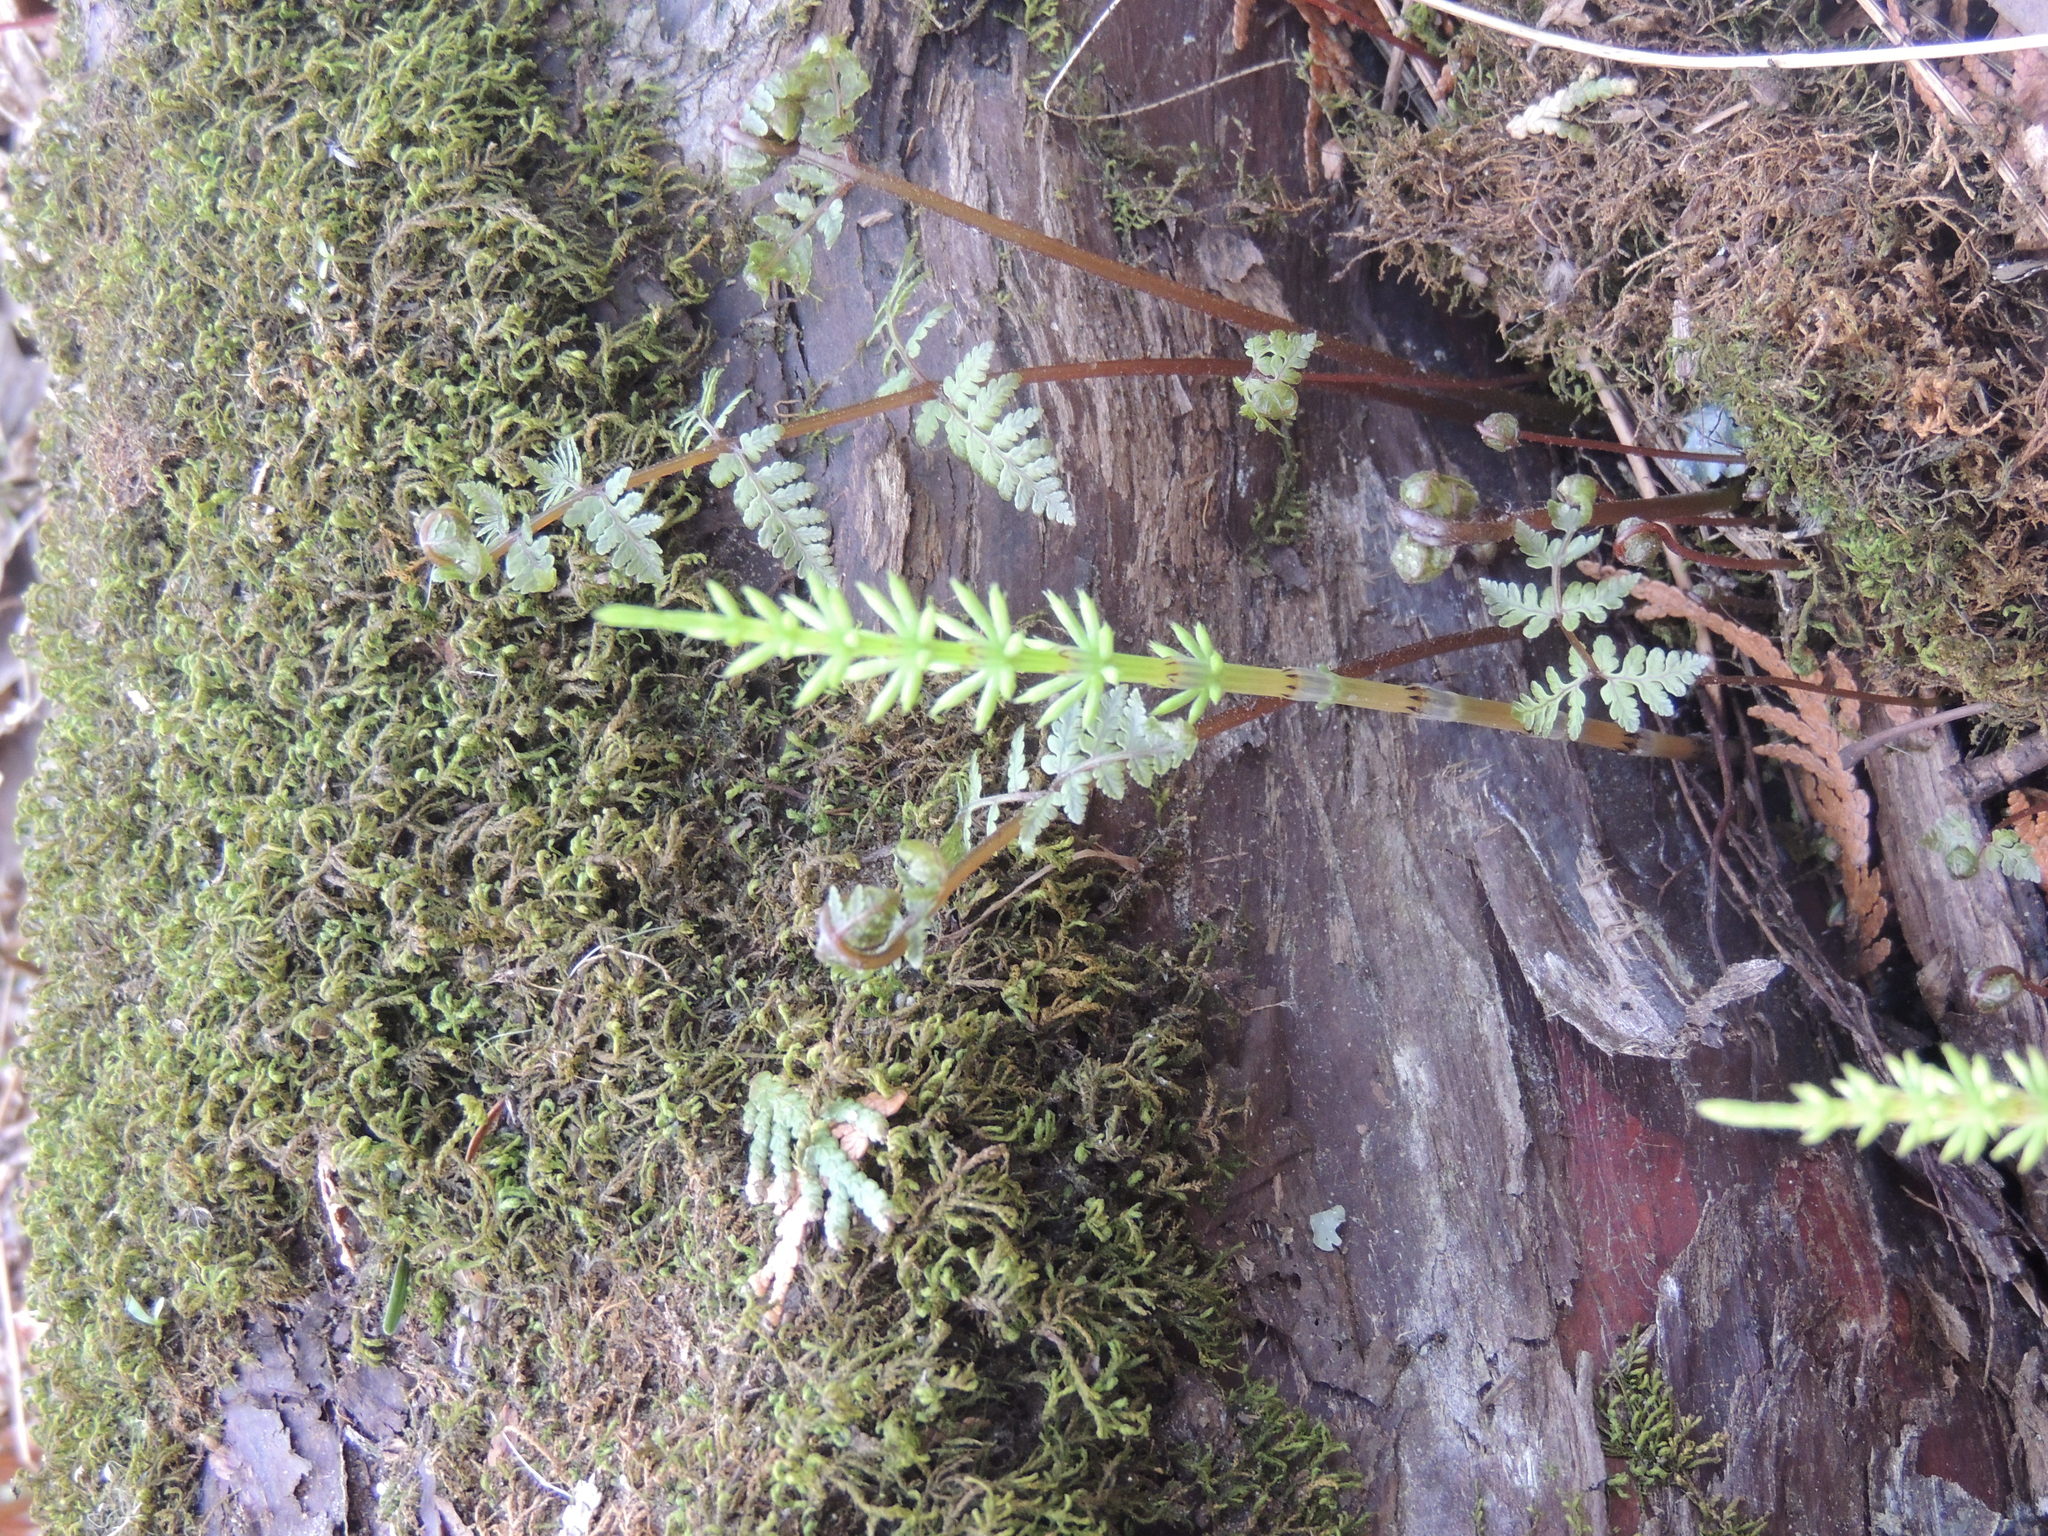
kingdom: Plantae
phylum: Tracheophyta
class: Polypodiopsida
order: Equisetales
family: Equisetaceae
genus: Equisetum
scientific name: Equisetum arvense
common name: Field horsetail
